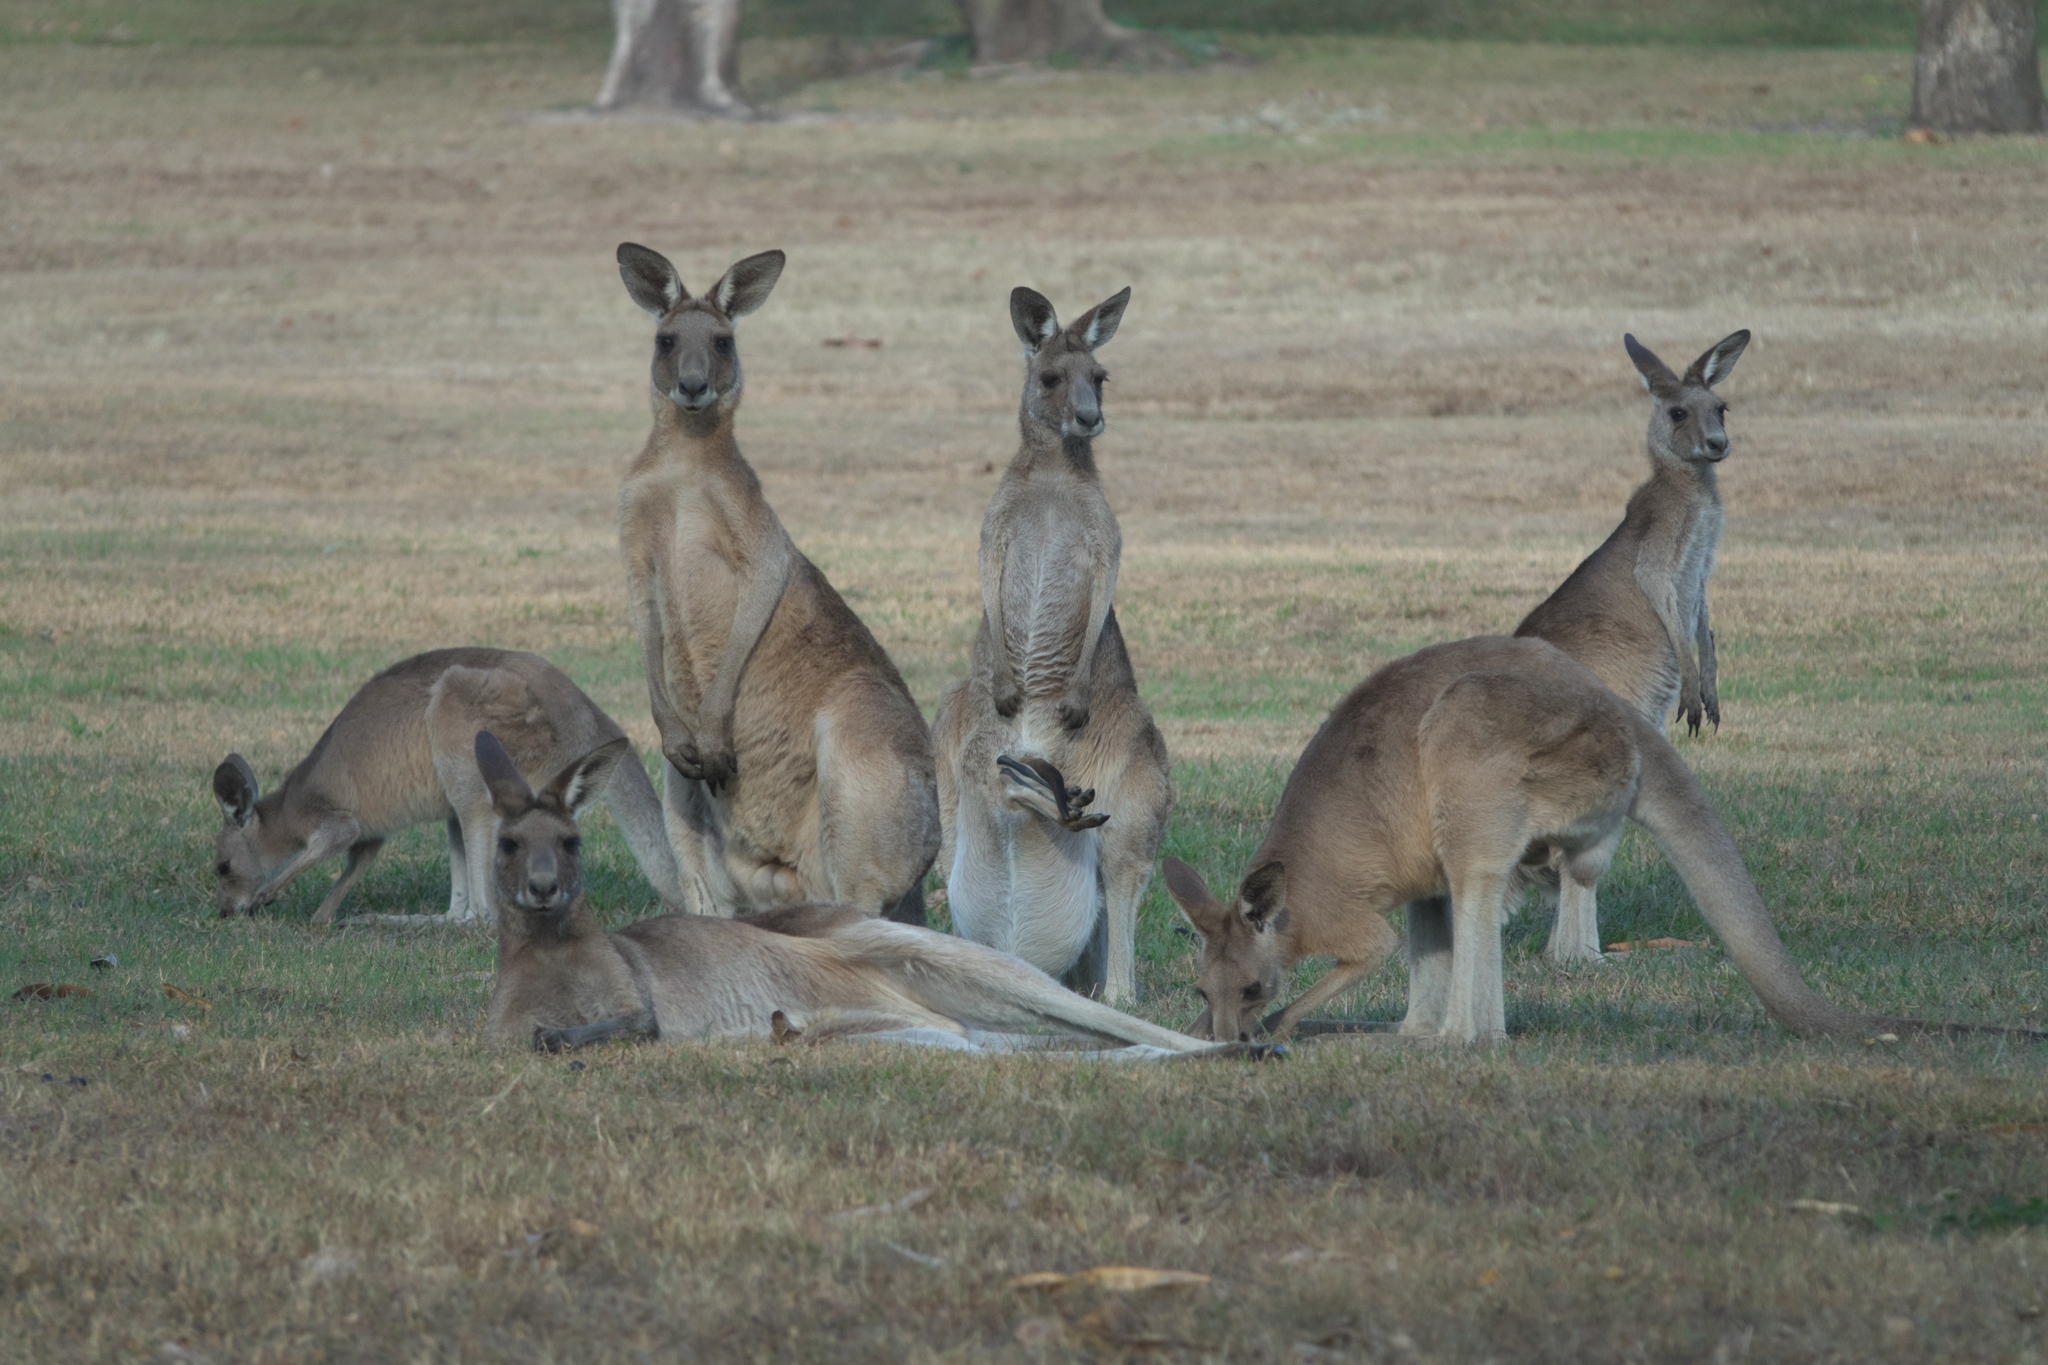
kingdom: Animalia
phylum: Chordata
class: Mammalia
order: Diprotodontia
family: Macropodidae
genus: Macropus
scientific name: Macropus giganteus
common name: Eastern grey kangaroo
